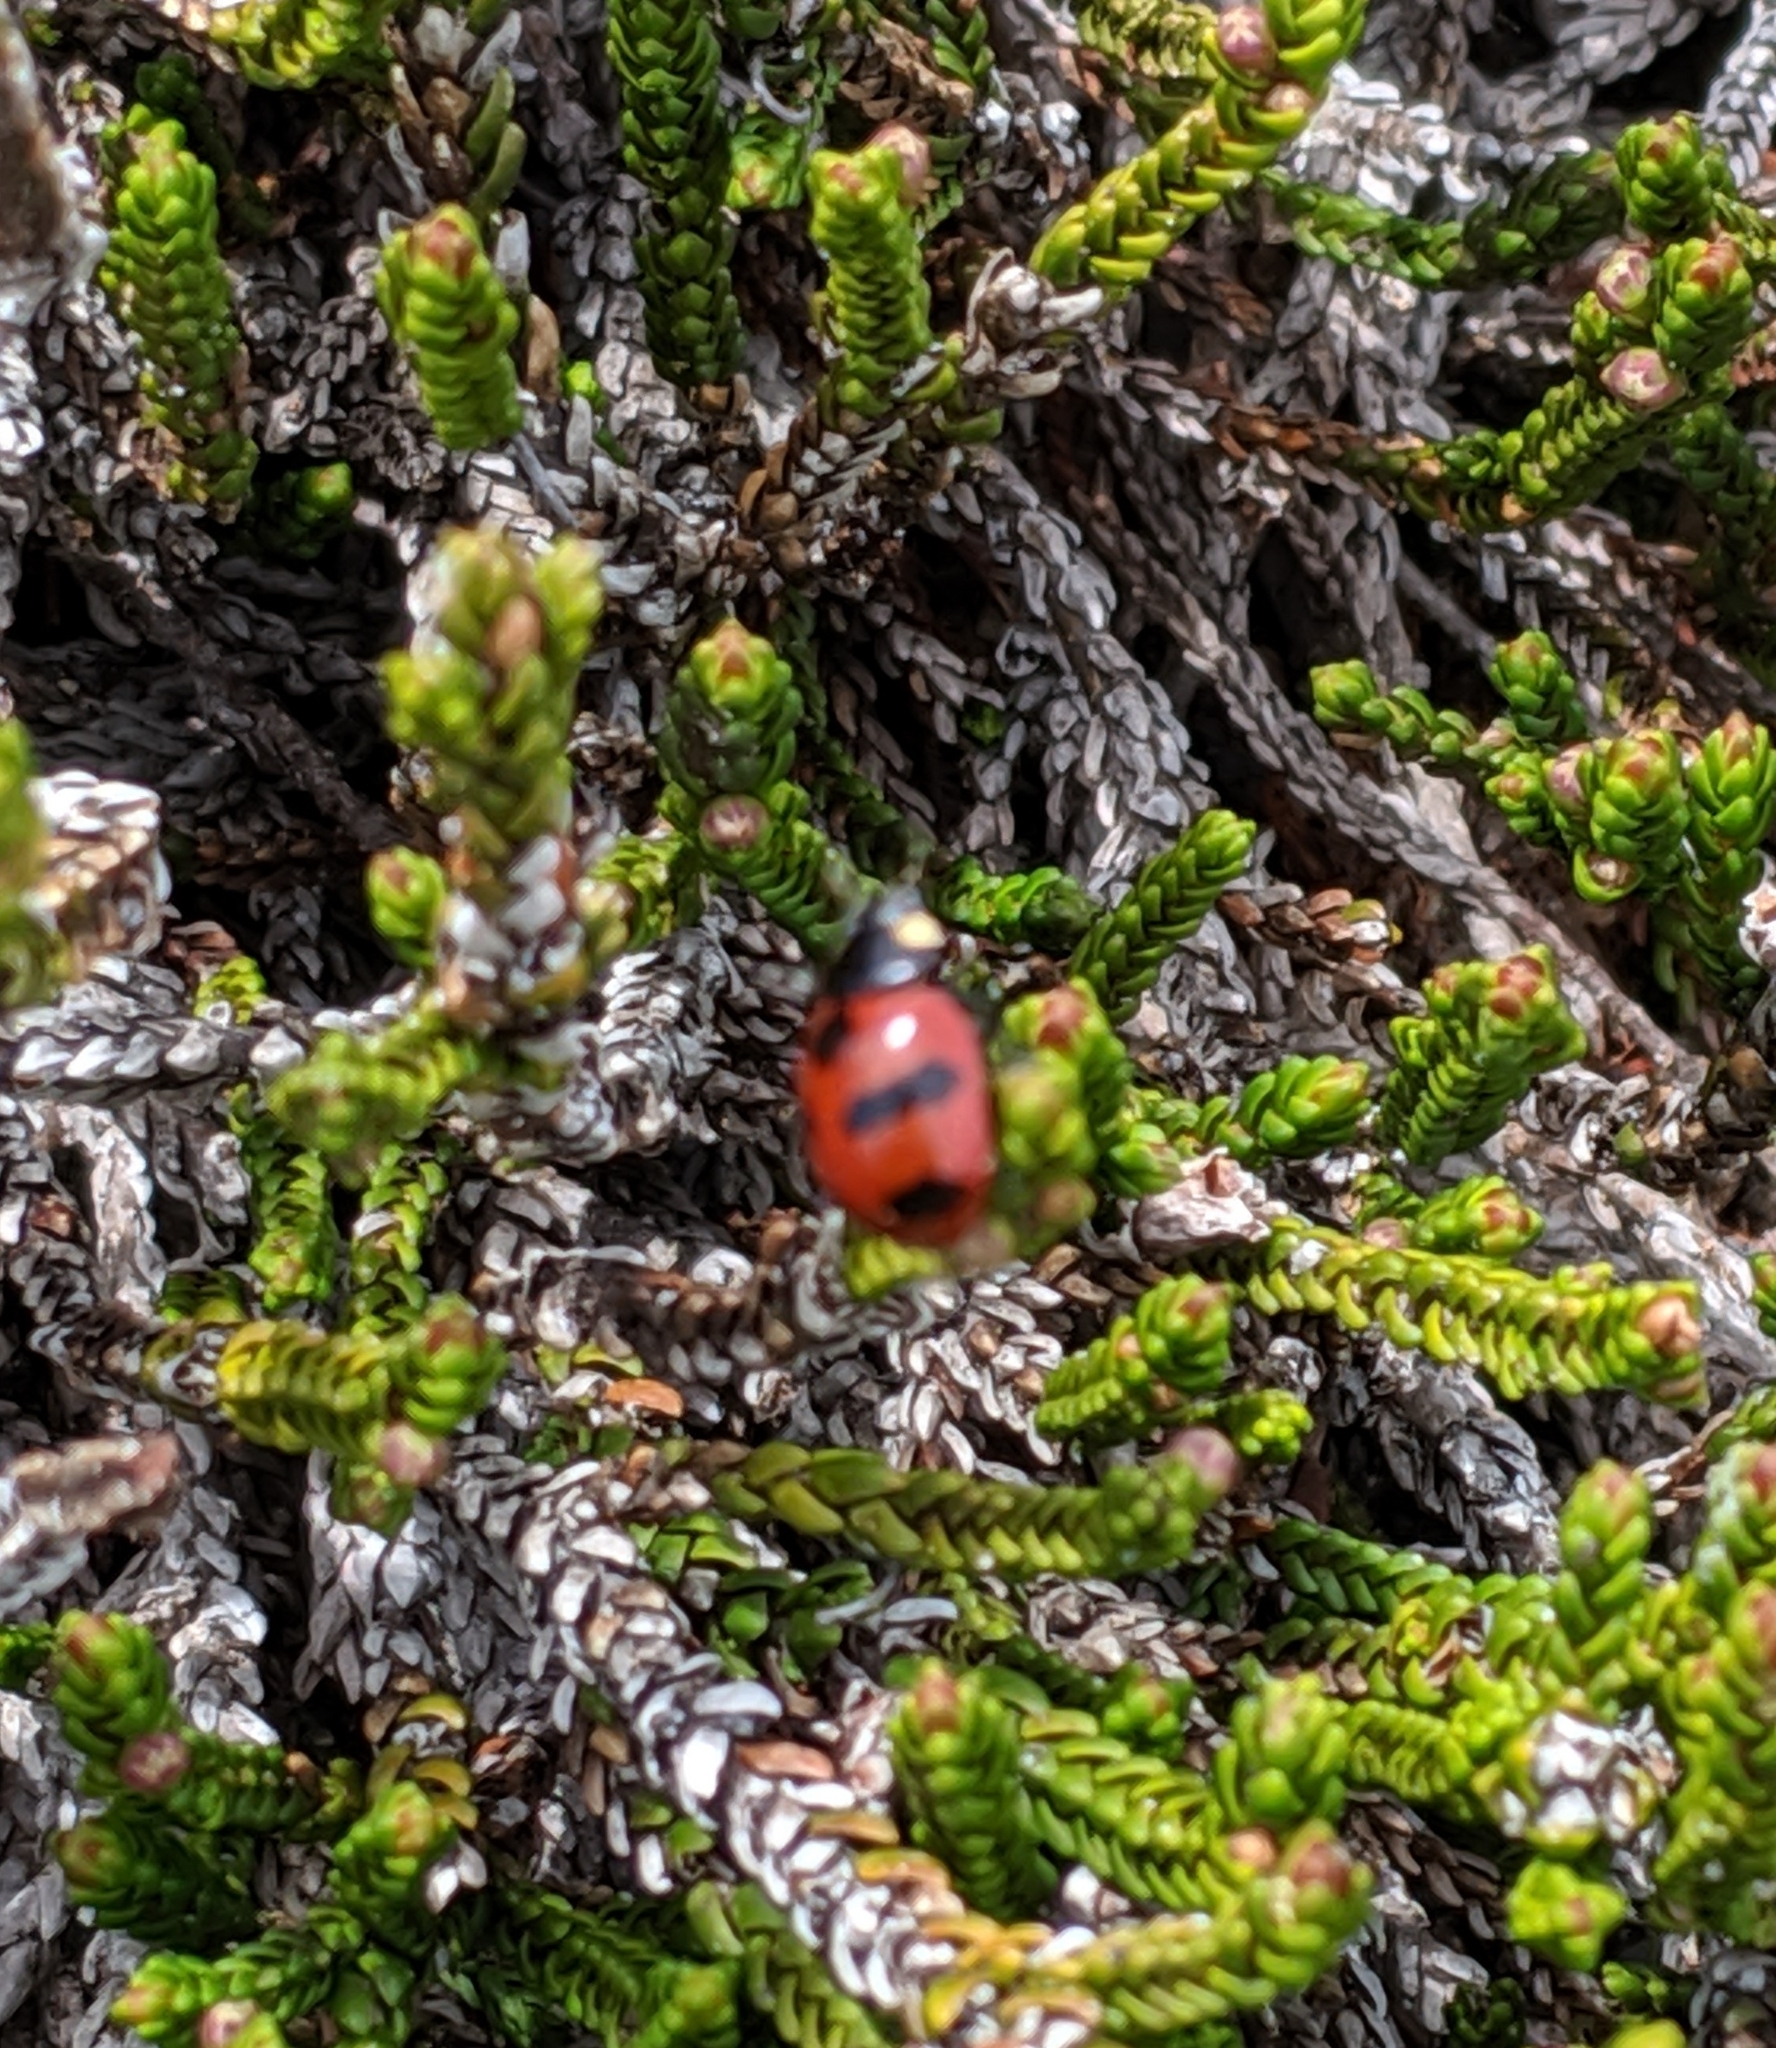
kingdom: Animalia
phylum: Arthropoda
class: Insecta
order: Coleoptera
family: Coccinellidae
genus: Coccinella
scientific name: Coccinella monticola
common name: Mountain lady beetle
